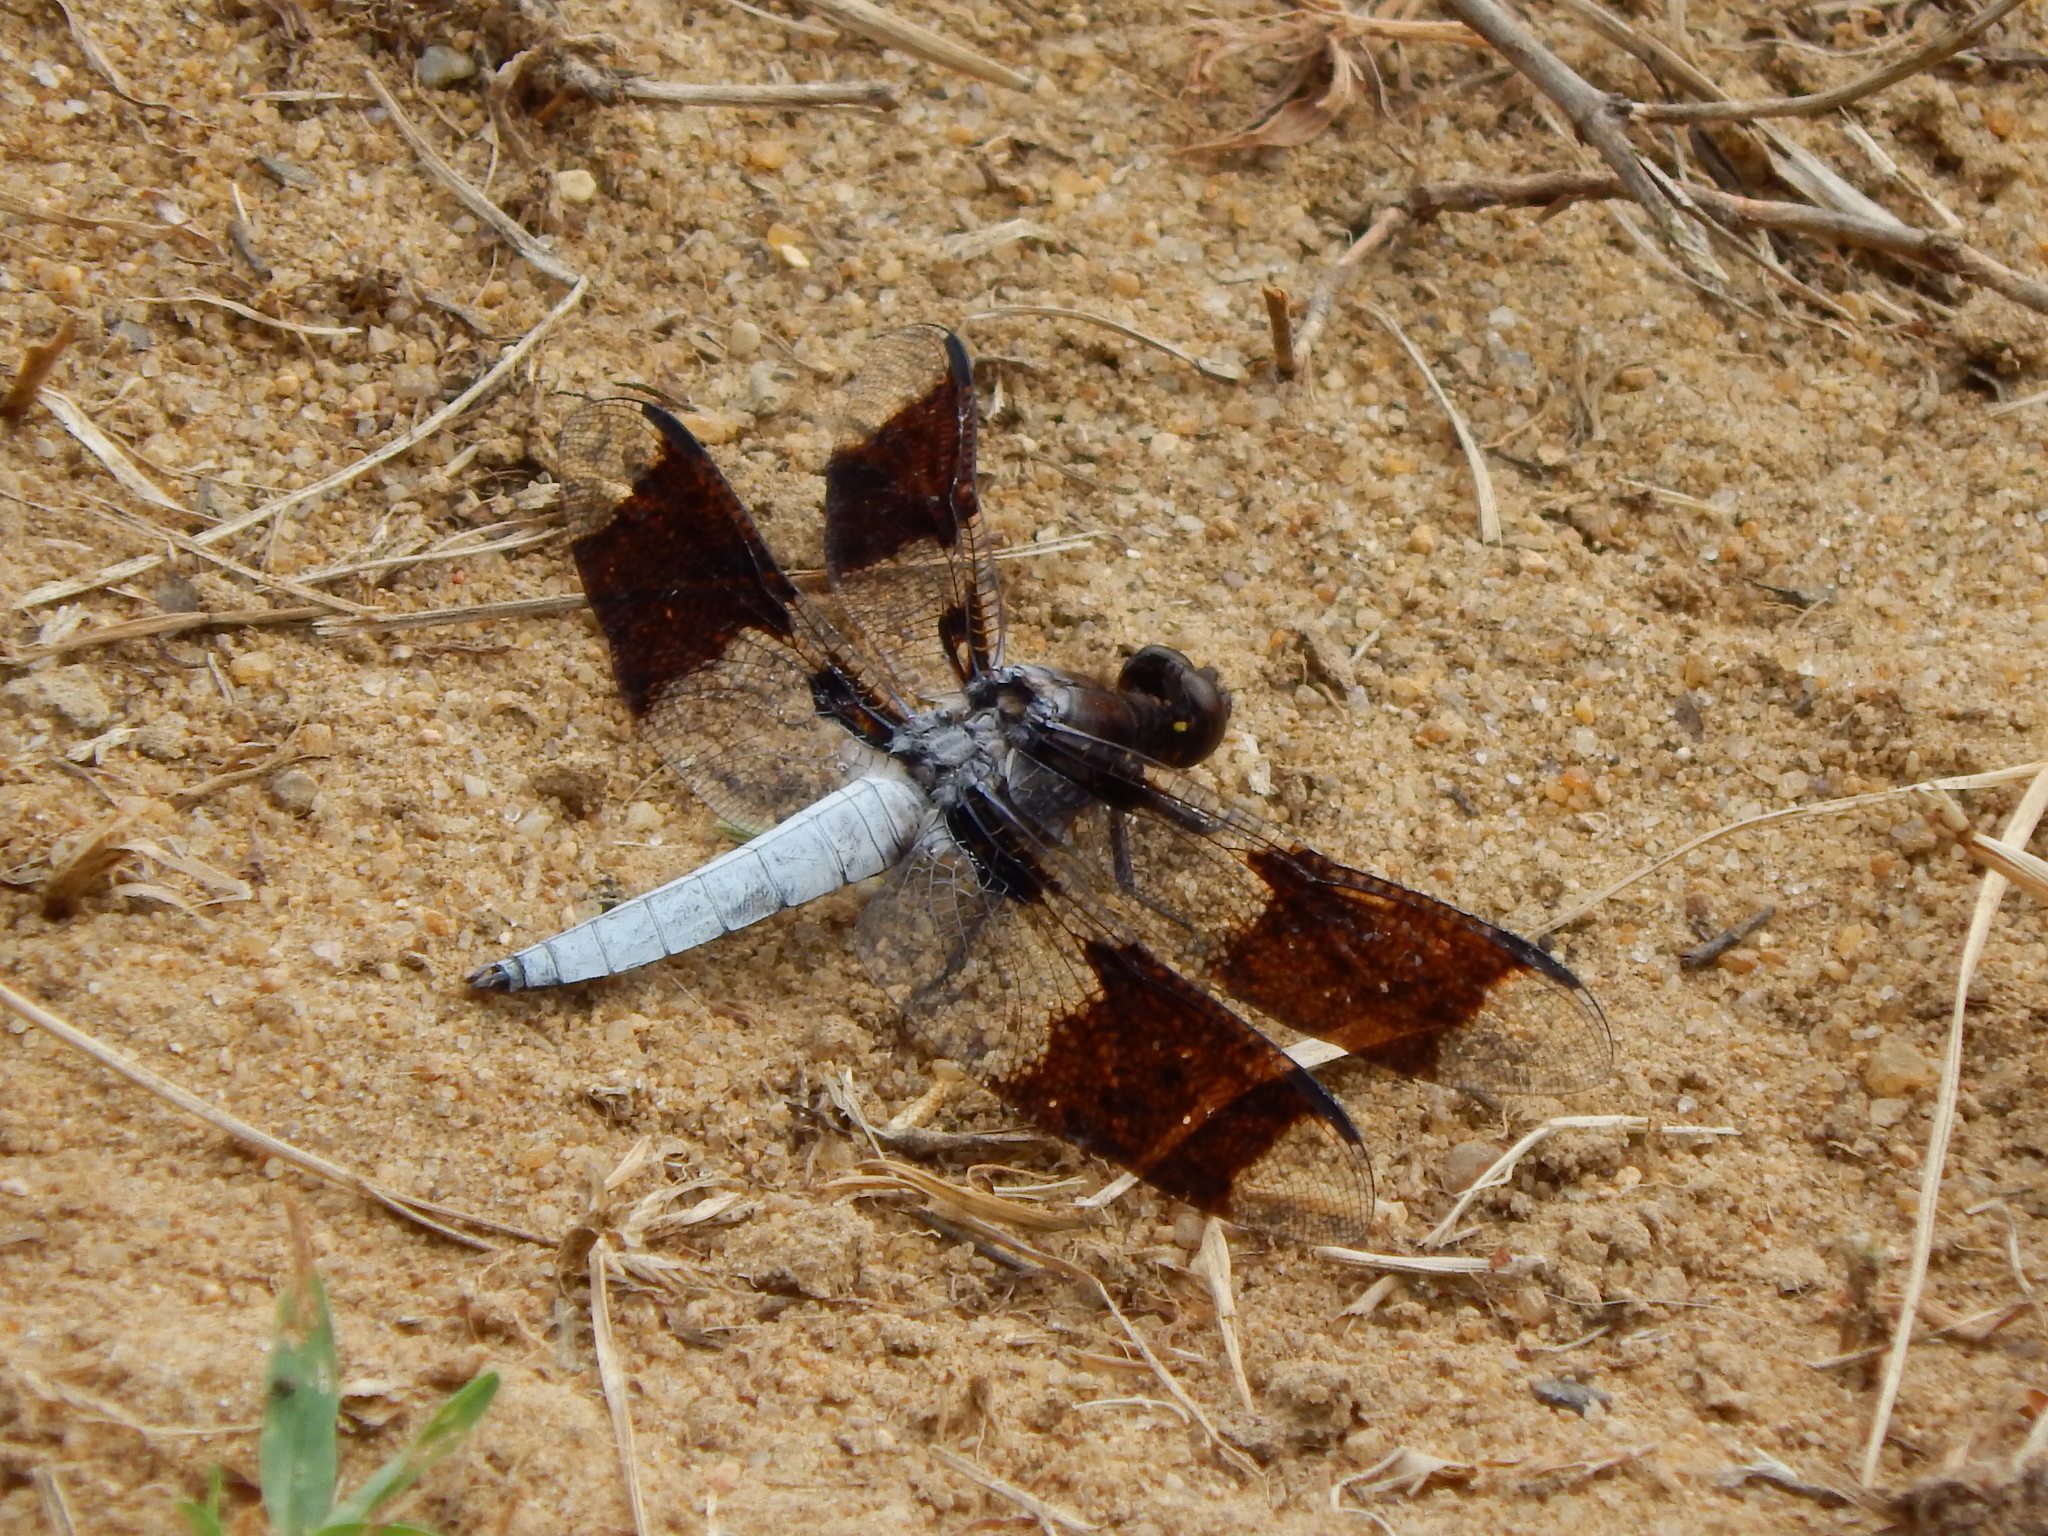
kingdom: Animalia
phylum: Arthropoda
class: Insecta
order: Odonata
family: Libellulidae
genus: Plathemis
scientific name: Plathemis lydia
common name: Common whitetail
